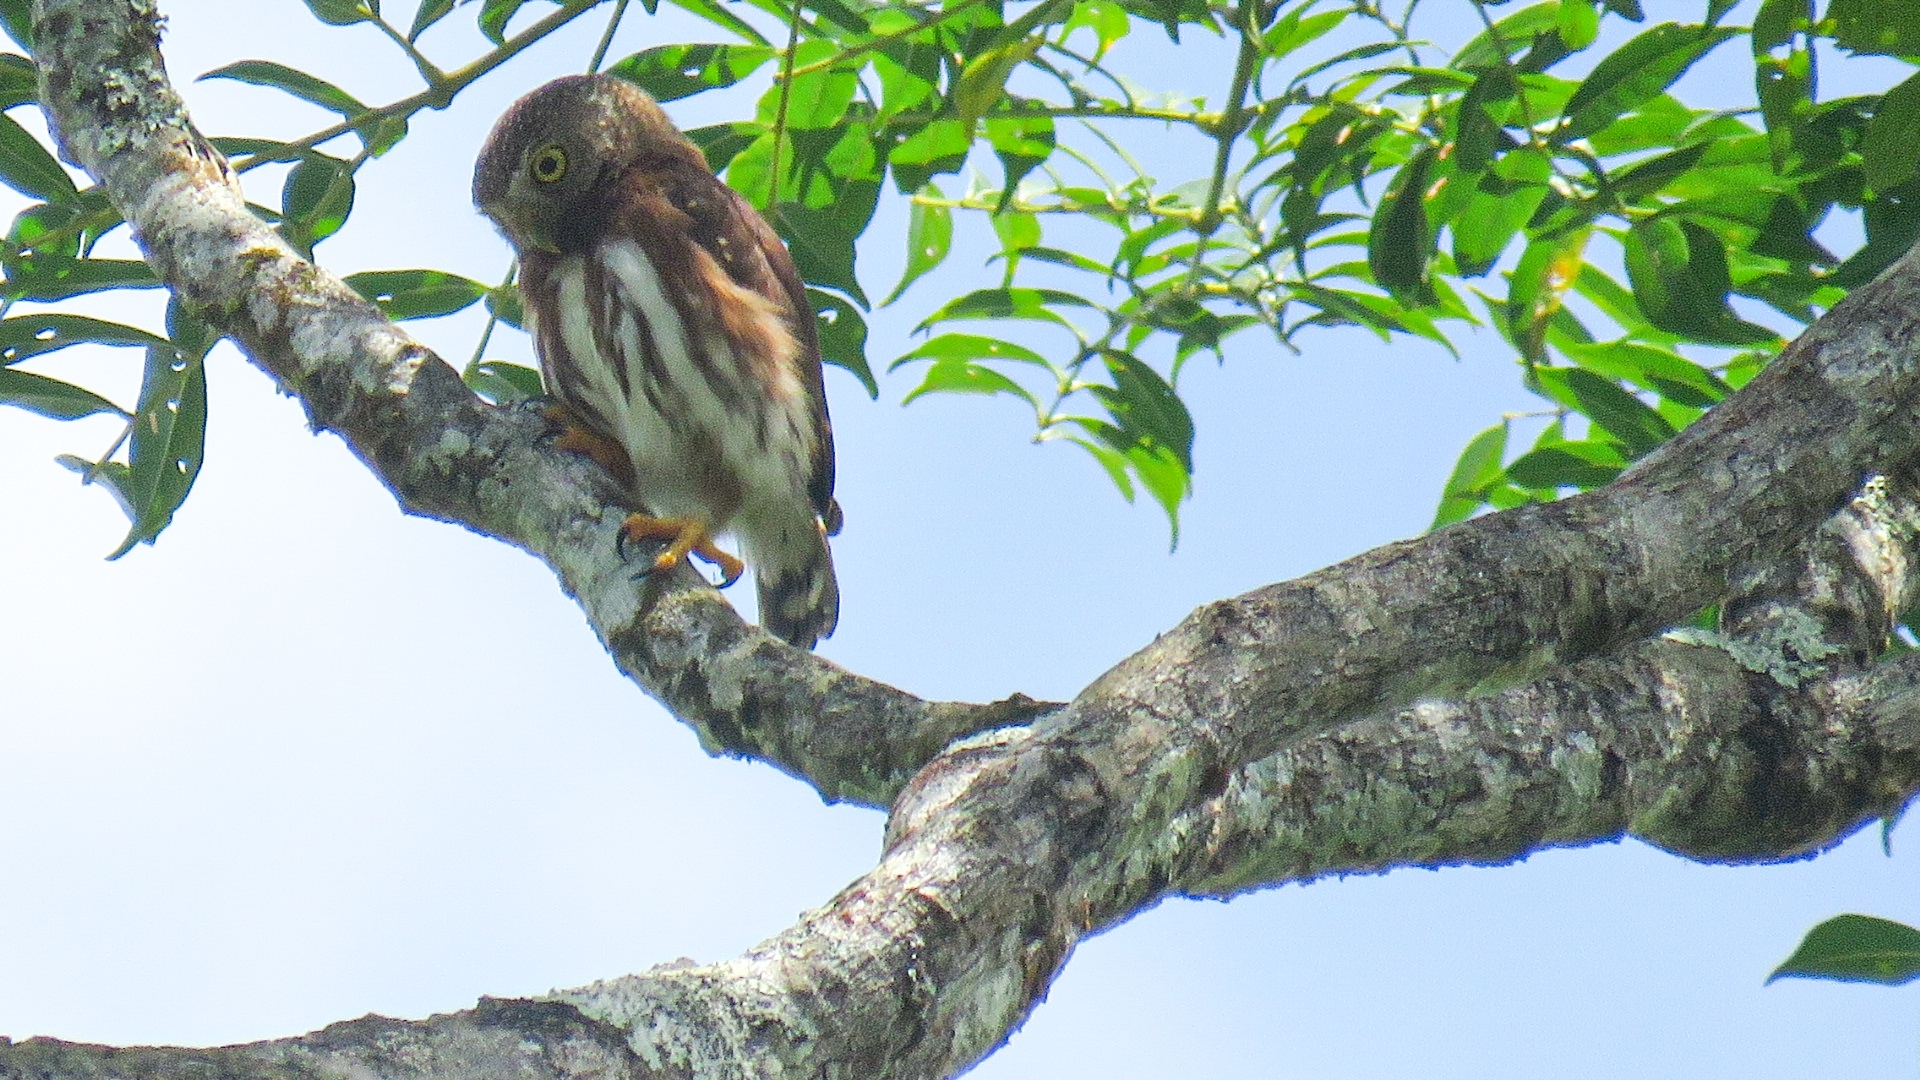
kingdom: Animalia
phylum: Chordata
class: Aves
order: Strigiformes
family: Strigidae
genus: Glaucidium
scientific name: Glaucidium griseiceps
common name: Central american pygmy-owl
